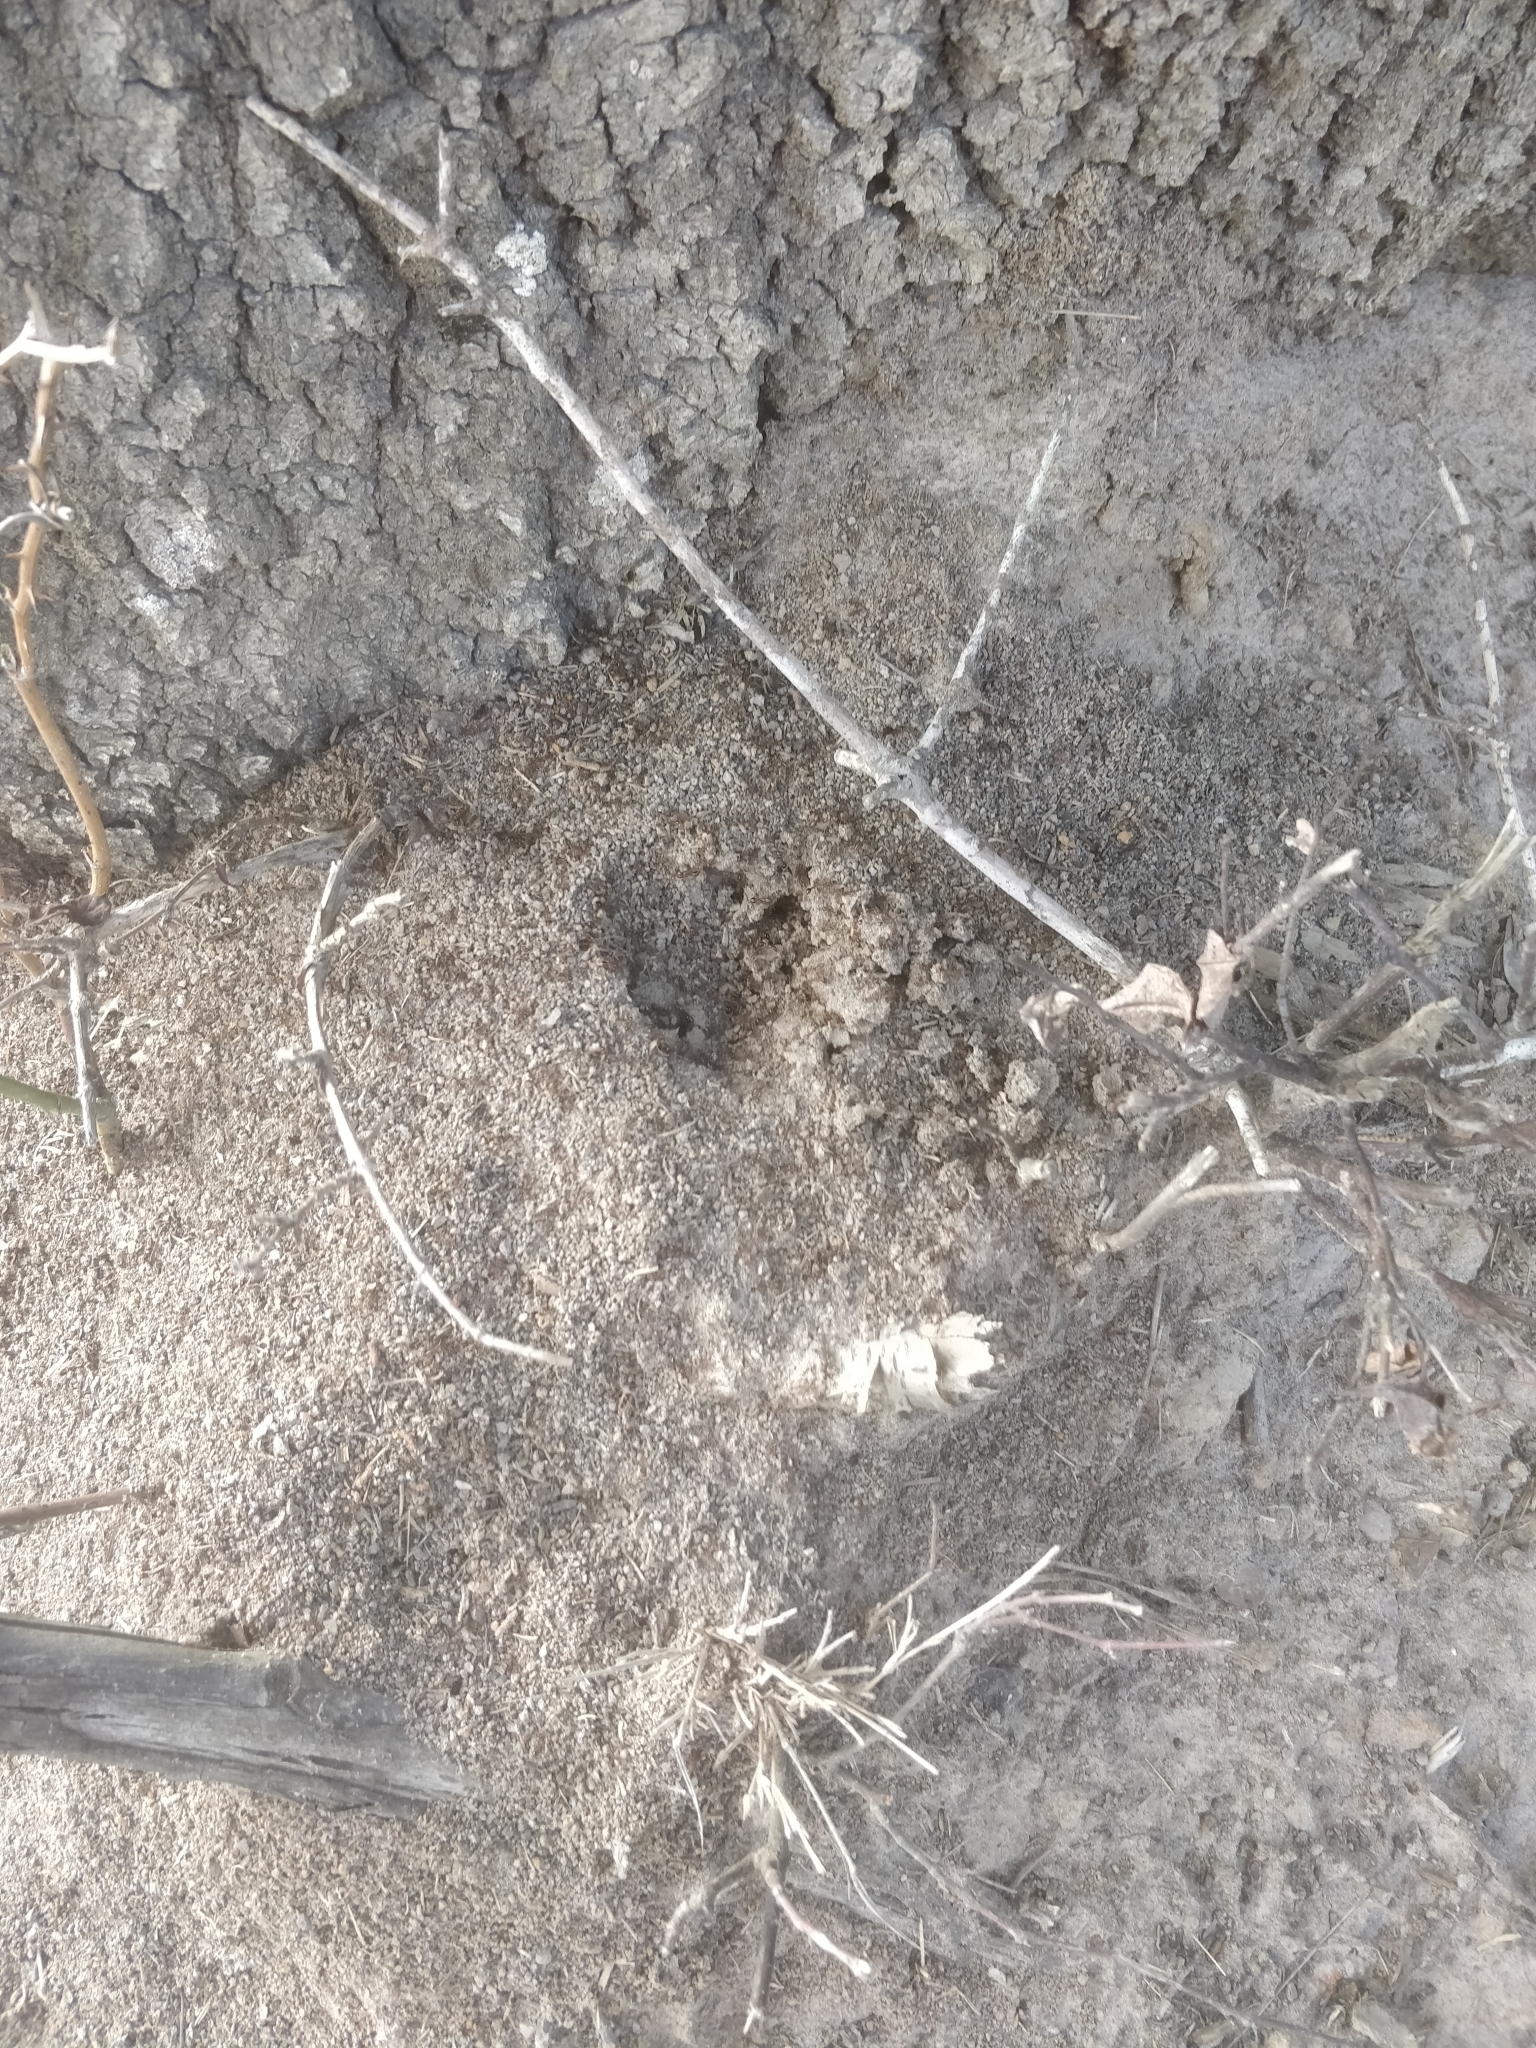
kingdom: Animalia
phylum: Arthropoda
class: Insecta
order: Hymenoptera
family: Formicidae
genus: Solenopsis
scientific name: Solenopsis invicta
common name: Red imported fire ant
